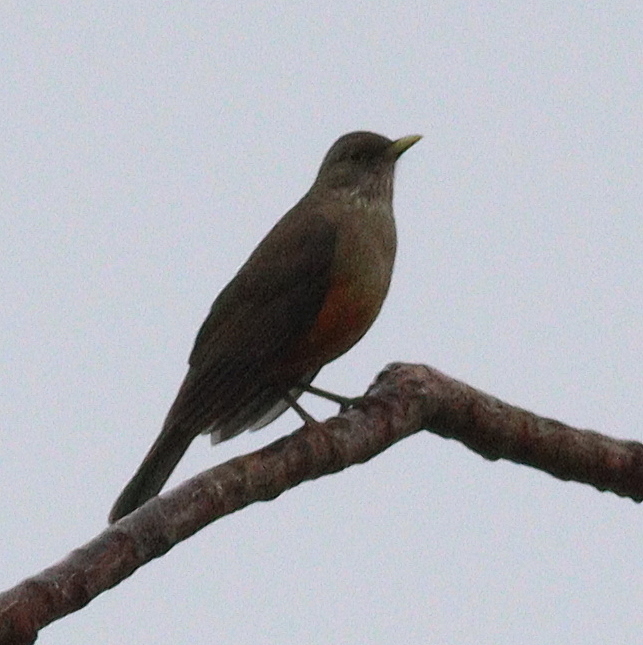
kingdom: Animalia
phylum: Chordata
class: Aves
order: Passeriformes
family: Turdidae
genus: Turdus
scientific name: Turdus rufiventris
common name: Rufous-bellied thrush
